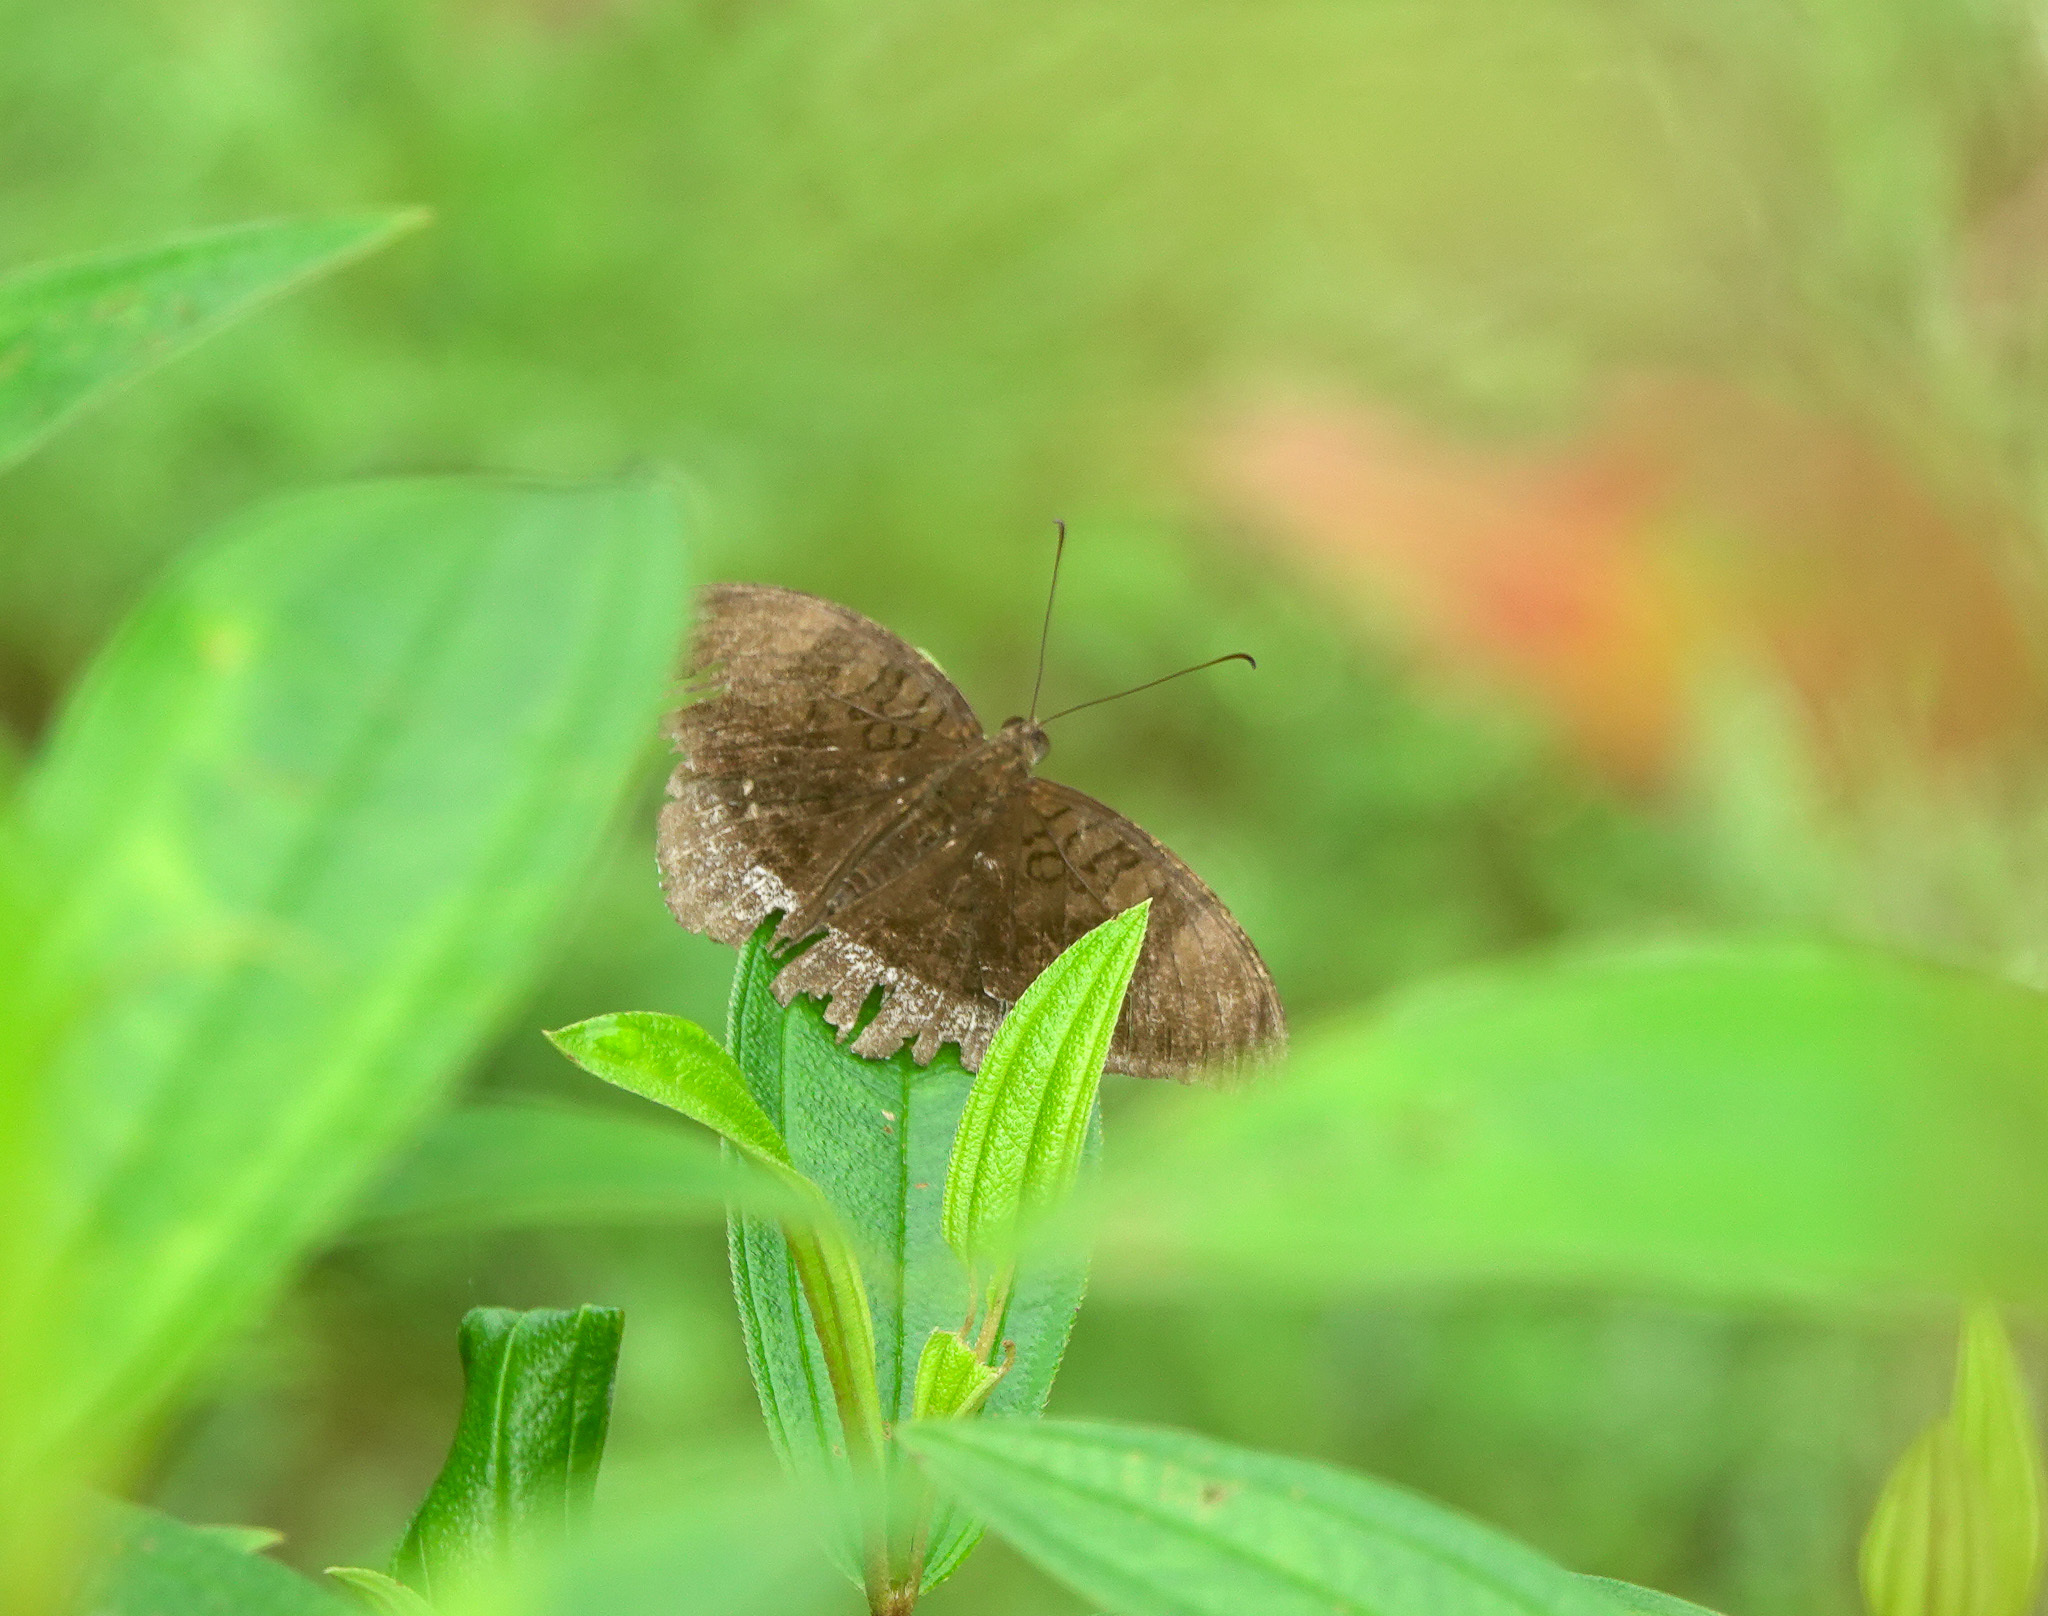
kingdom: Animalia
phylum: Arthropoda
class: Insecta
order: Lepidoptera
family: Nymphalidae
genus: Tanaecia
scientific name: Tanaecia lepidea
